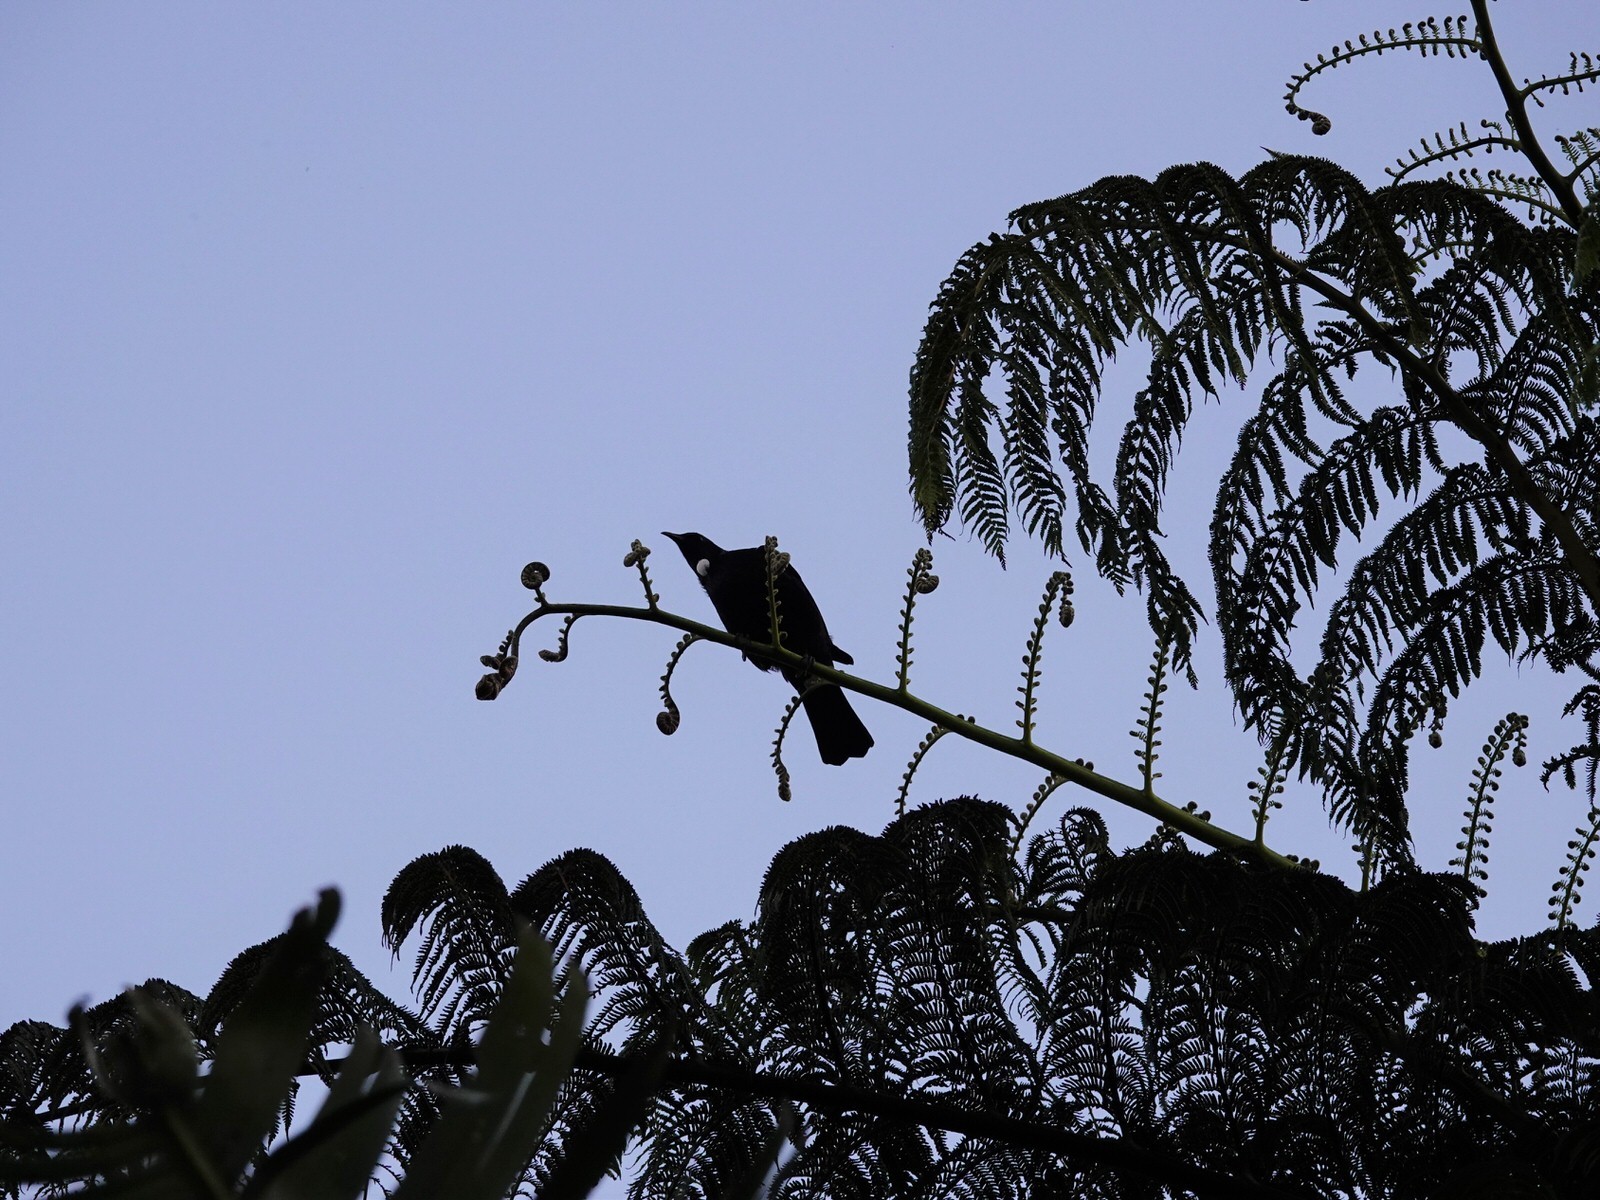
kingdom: Animalia
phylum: Chordata
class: Aves
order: Passeriformes
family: Meliphagidae
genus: Prosthemadera
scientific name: Prosthemadera novaeseelandiae
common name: Tui
